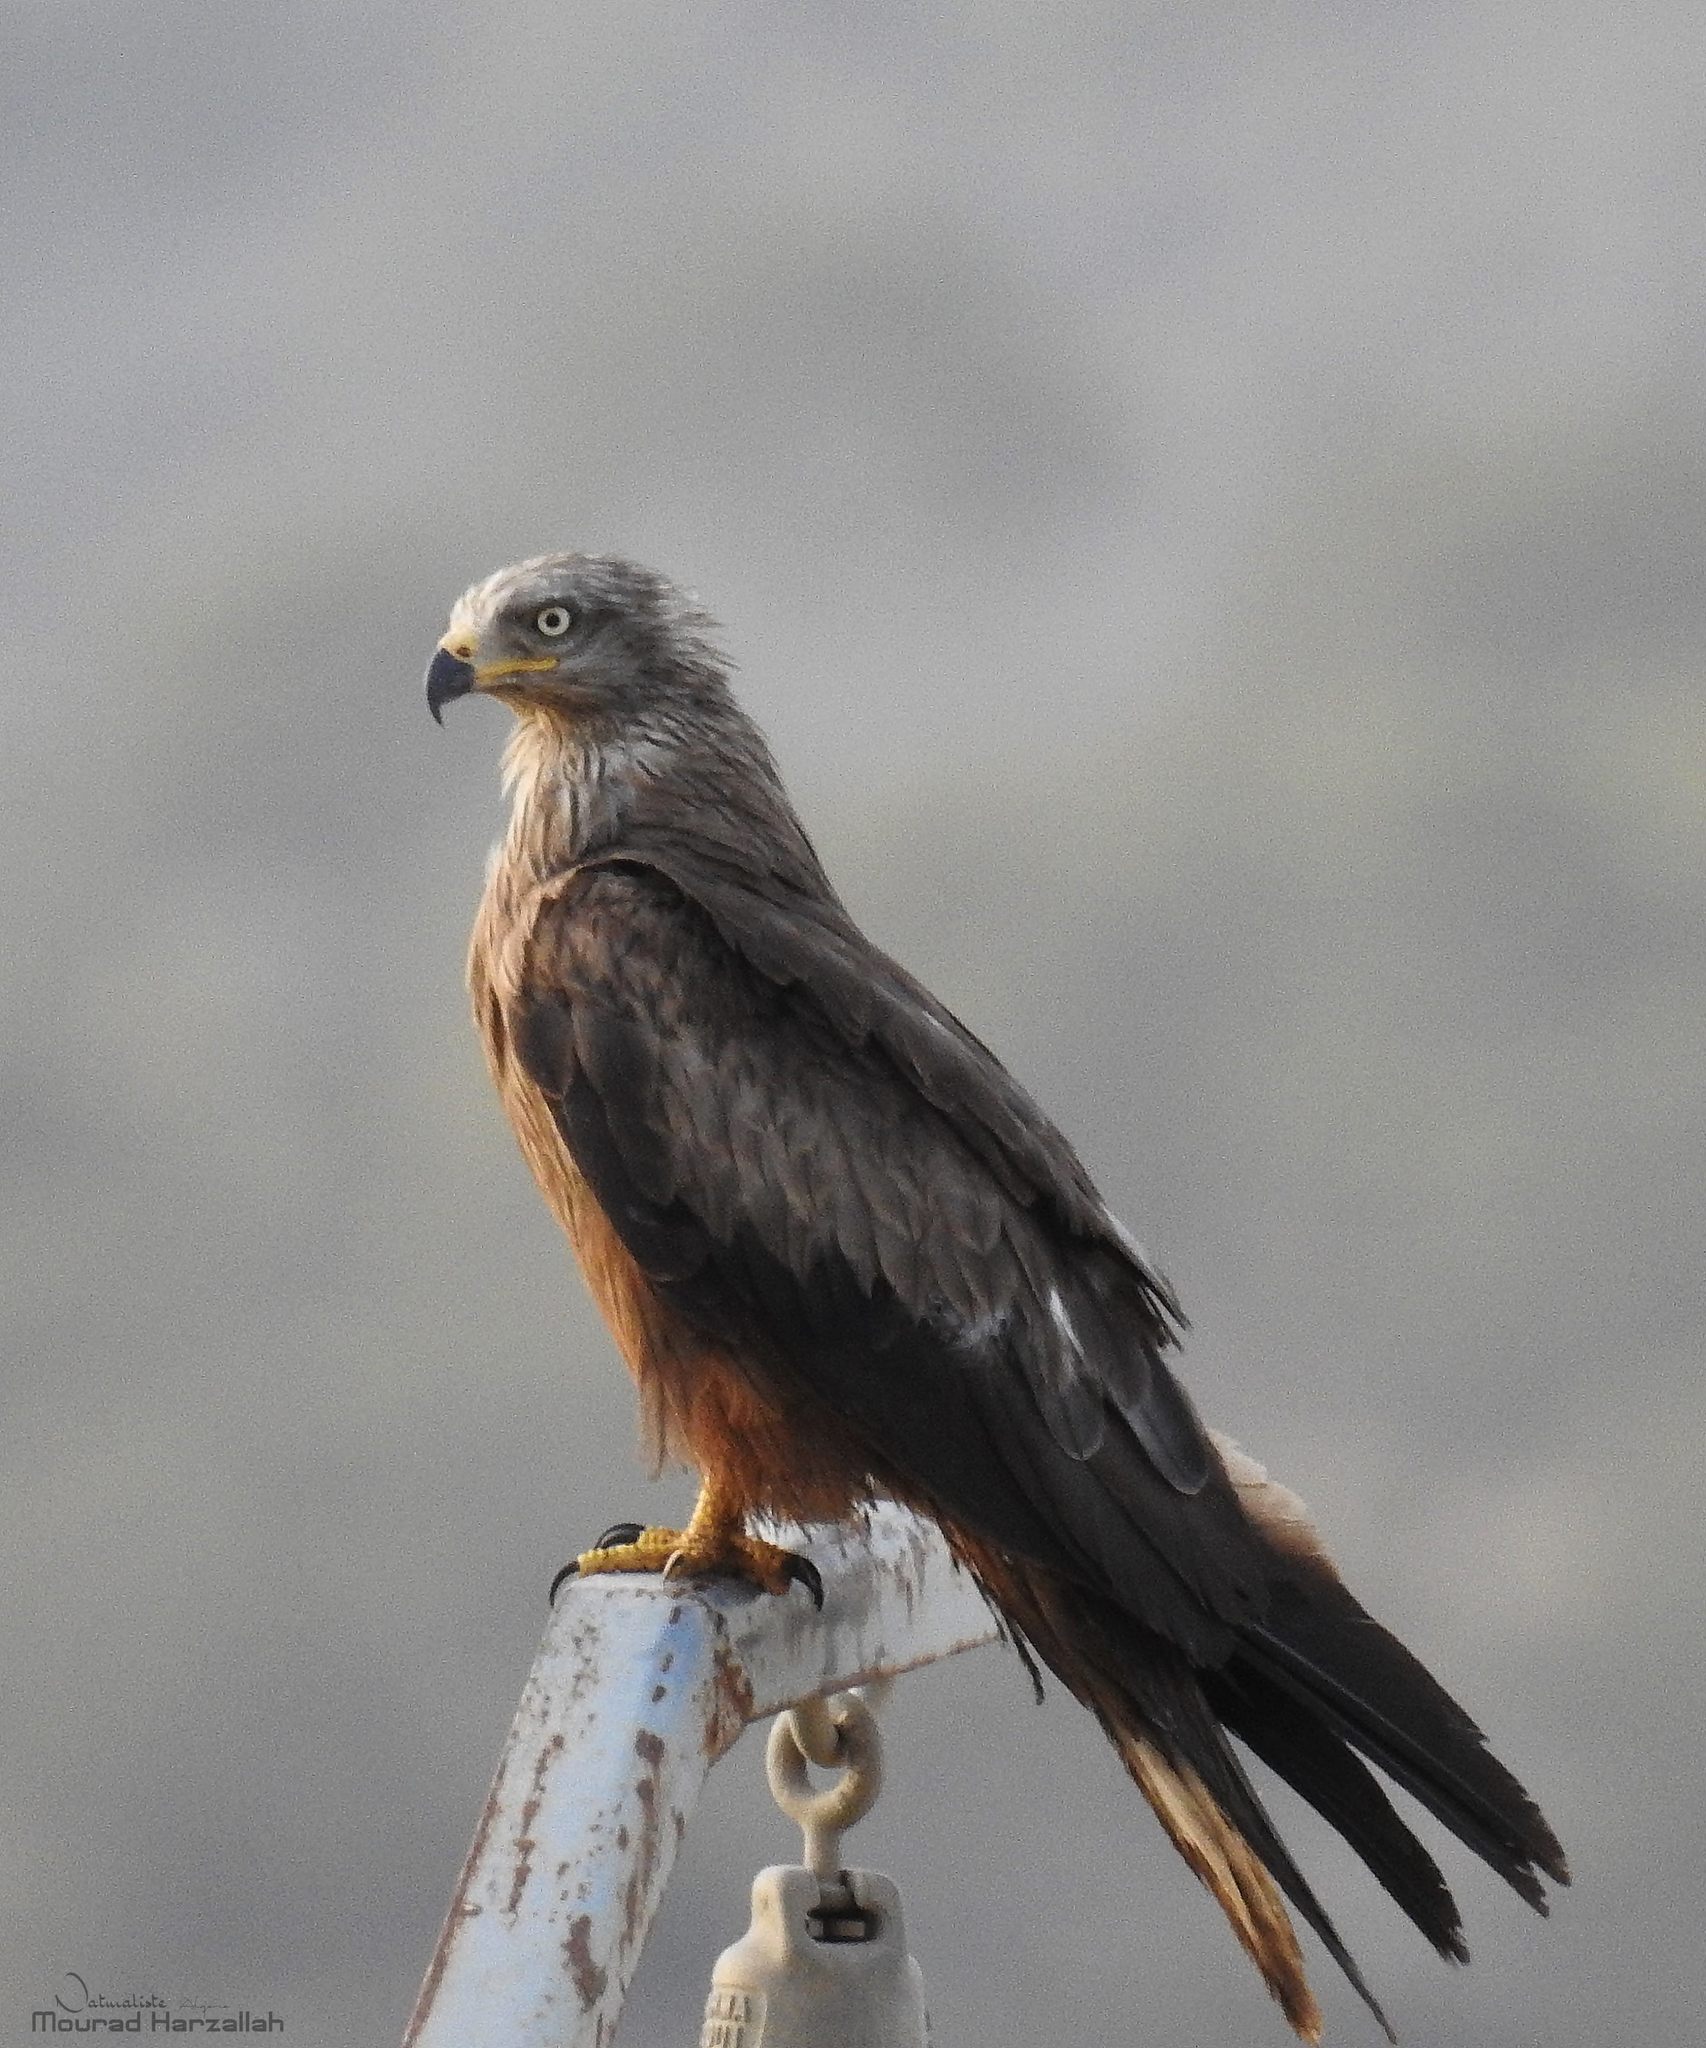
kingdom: Animalia
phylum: Chordata
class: Aves
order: Accipitriformes
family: Accipitridae
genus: Milvus
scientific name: Milvus migrans
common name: Black kite
